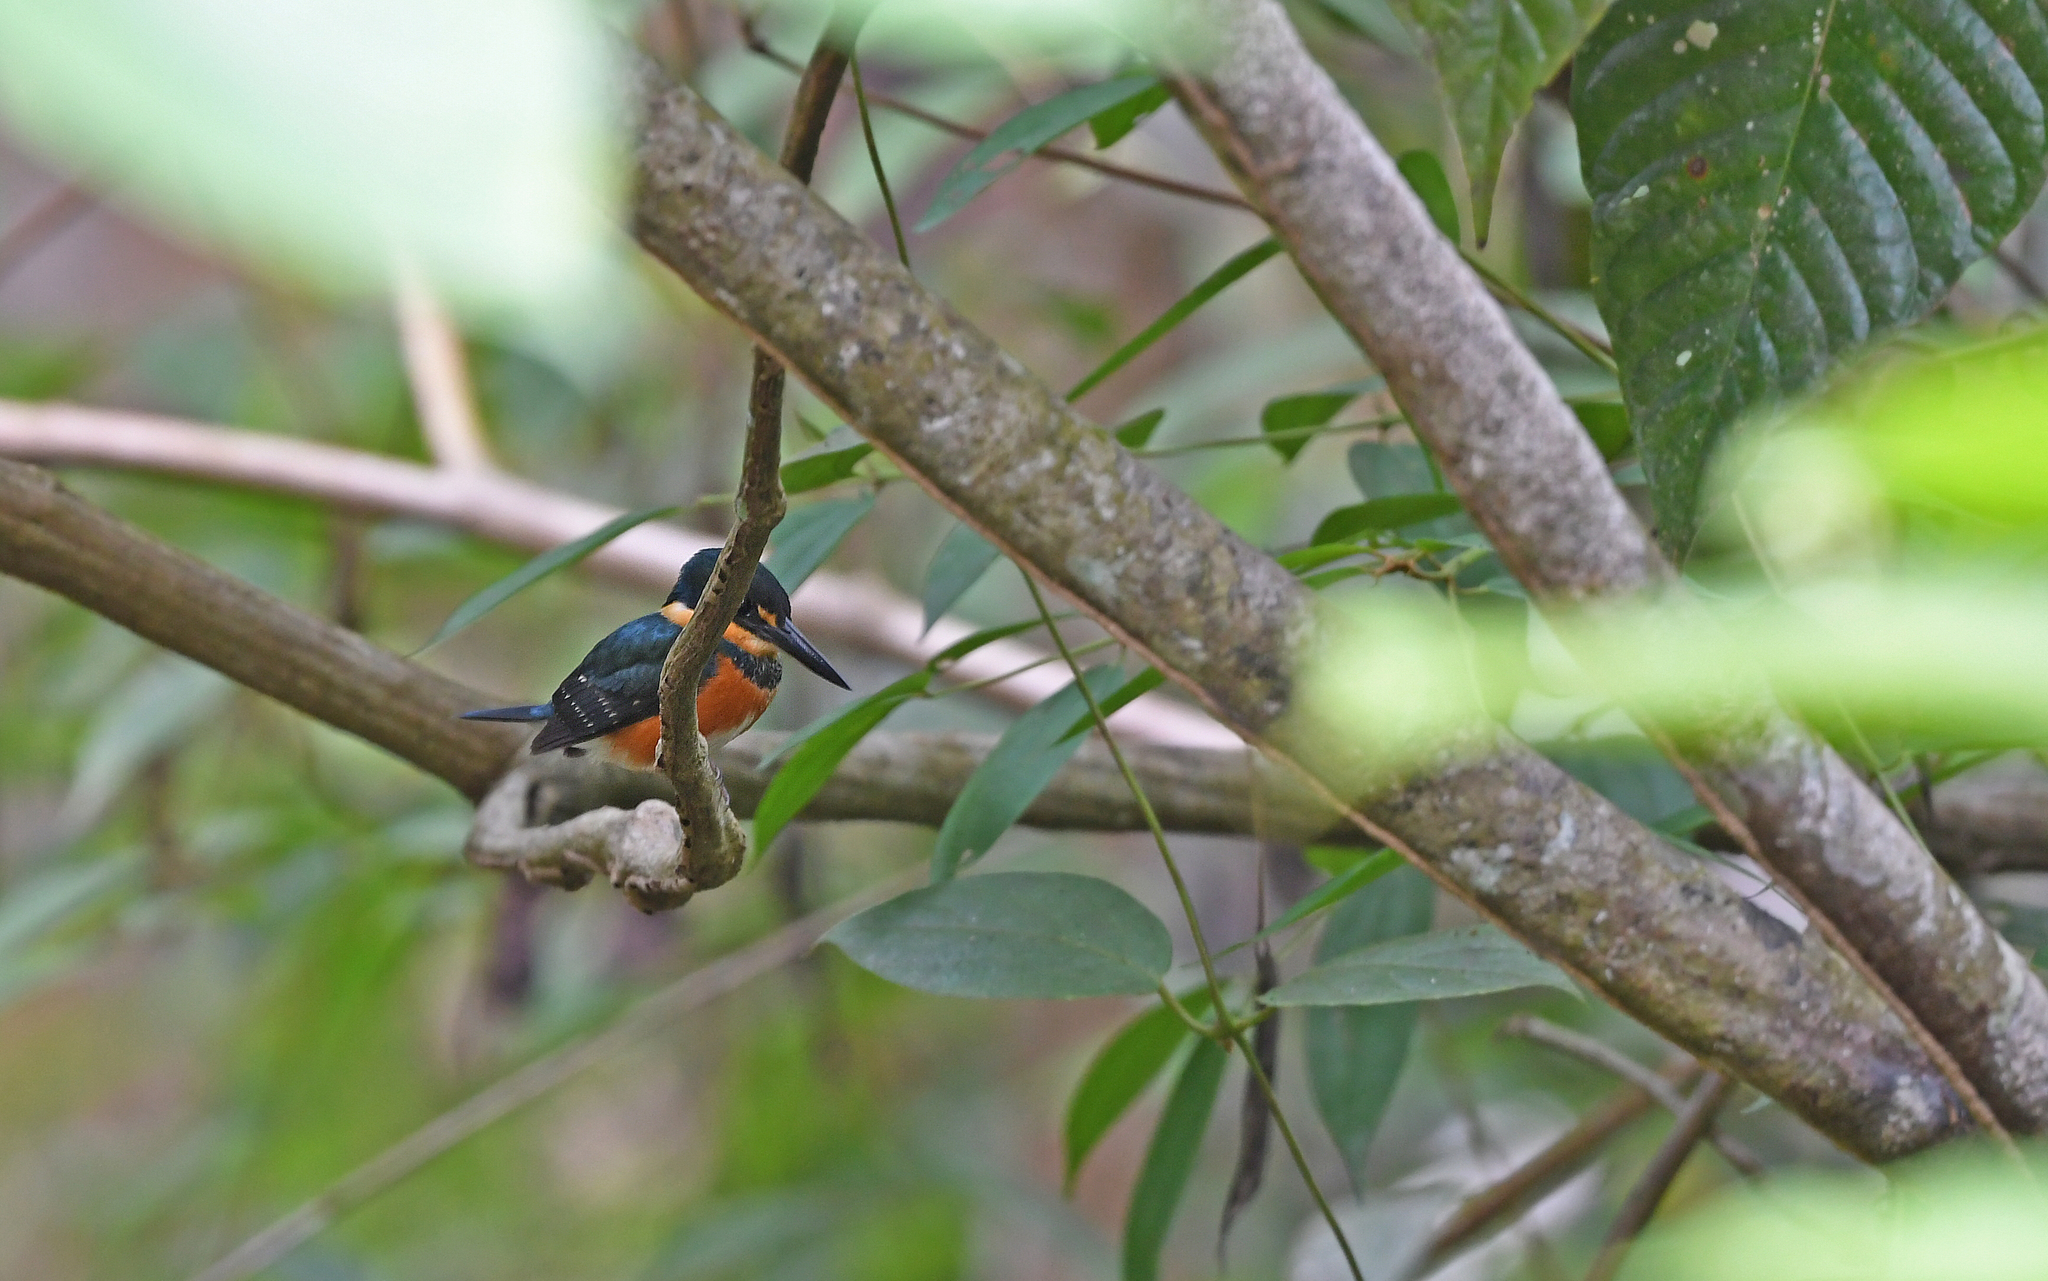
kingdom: Animalia
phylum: Chordata
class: Aves
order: Coraciiformes
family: Alcedinidae
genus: Chloroceryle
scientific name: Chloroceryle aenea
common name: American pygmy kingfisher
